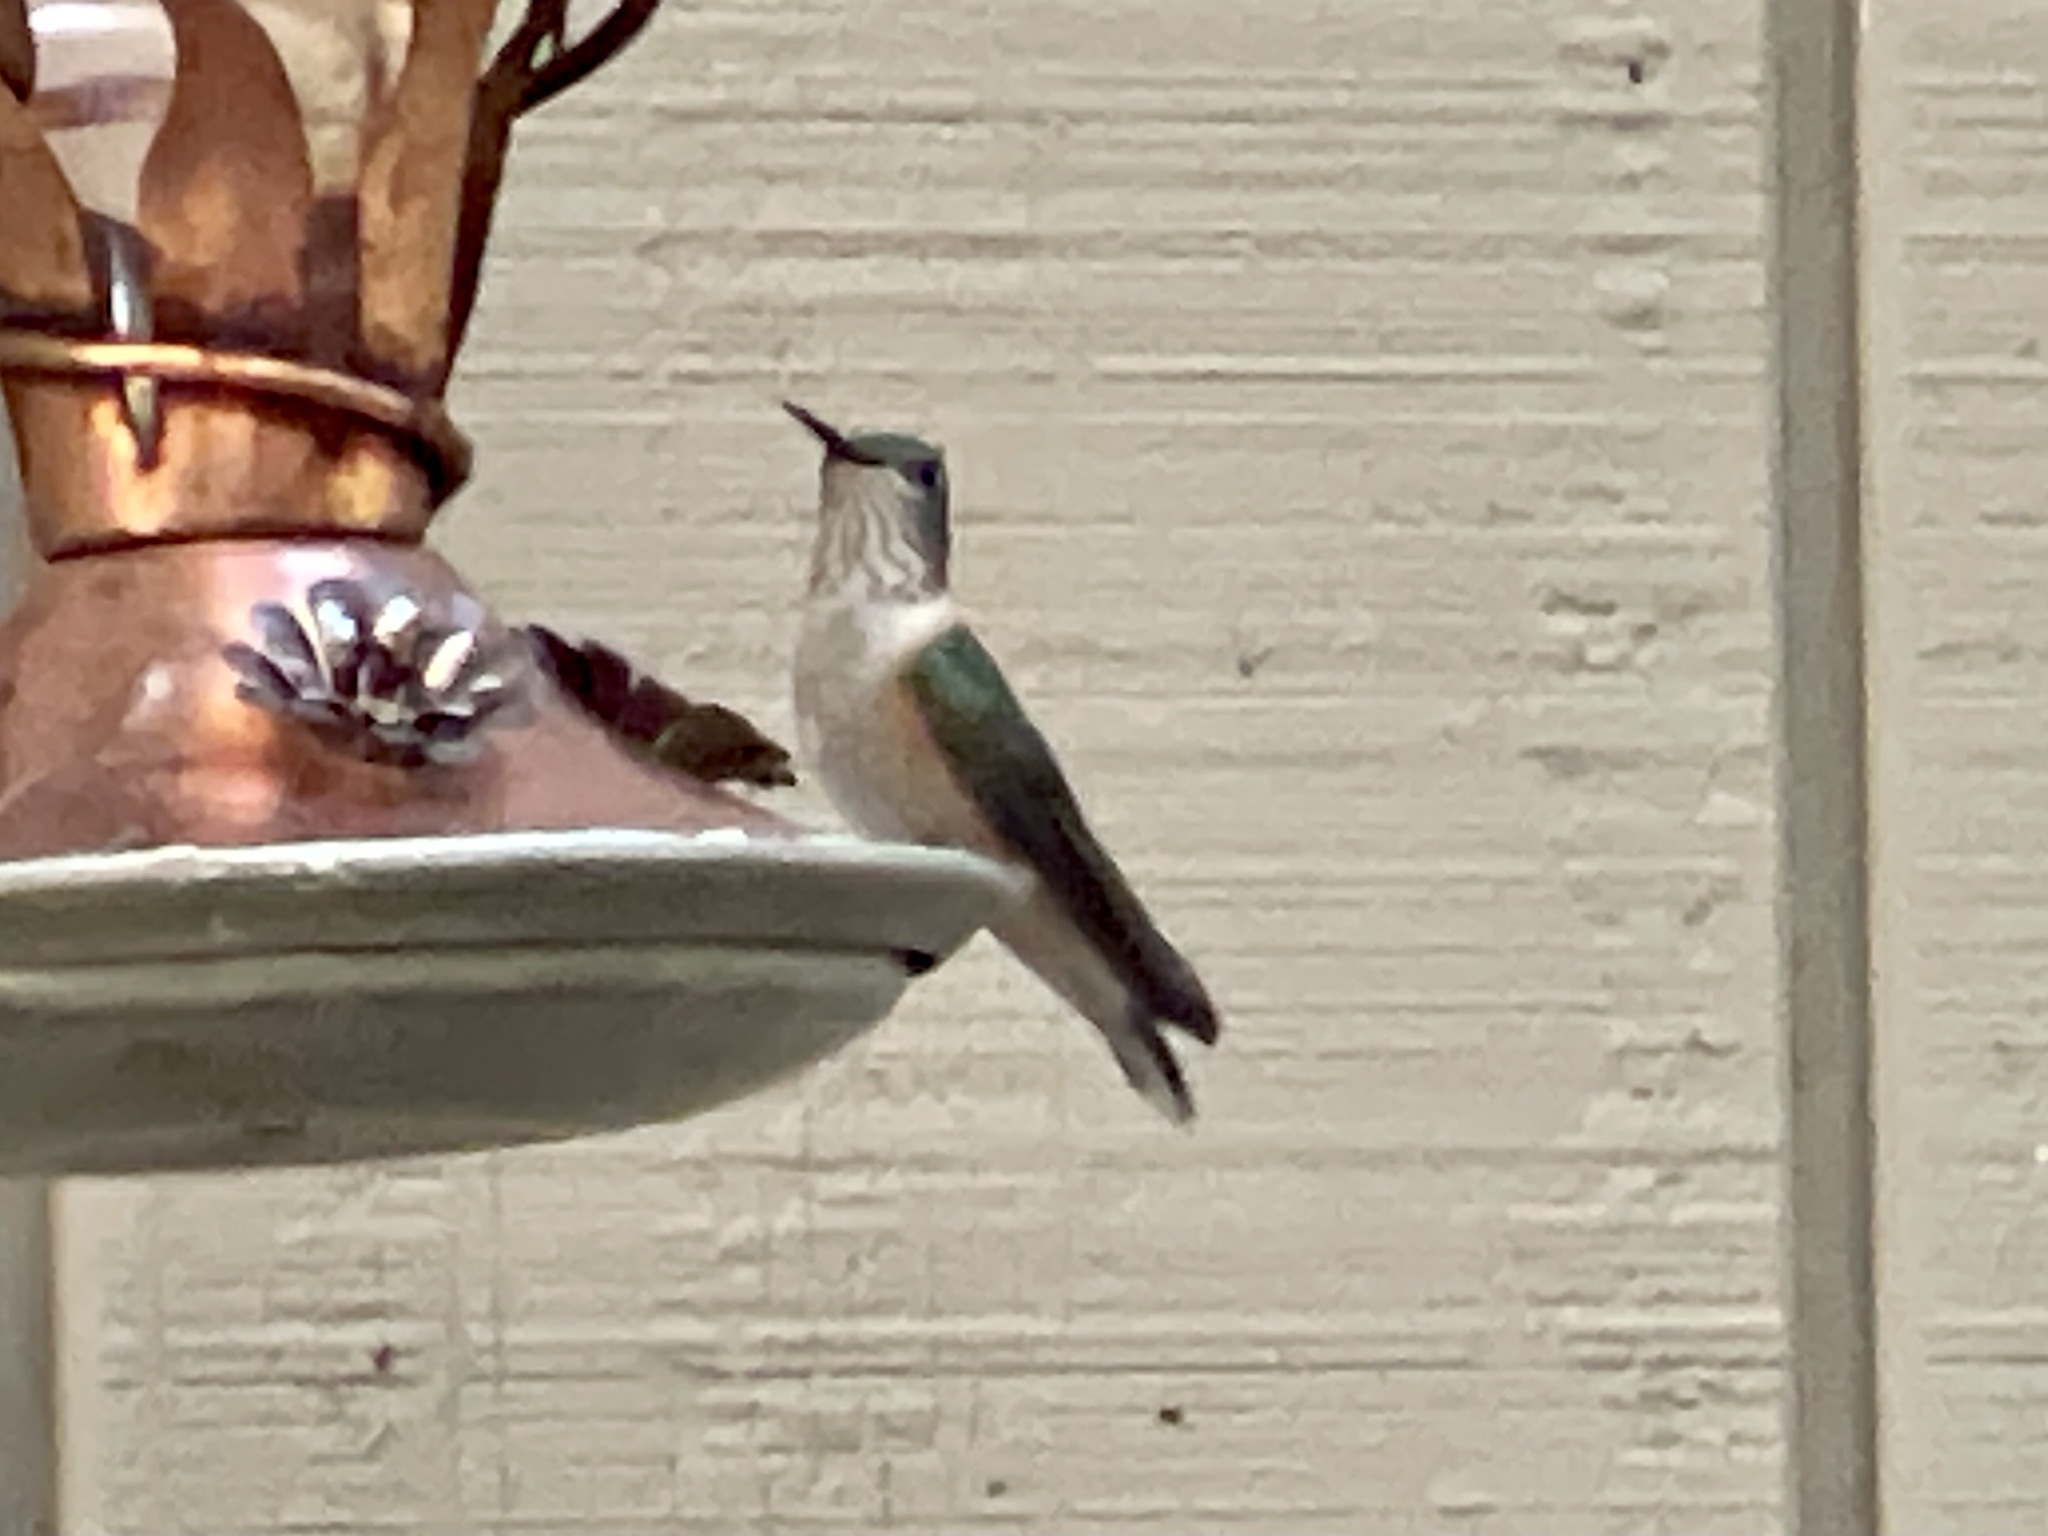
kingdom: Animalia
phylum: Chordata
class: Aves
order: Apodiformes
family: Trochilidae
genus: Selasphorus
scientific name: Selasphorus platycercus
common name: Broad-tailed hummingbird
